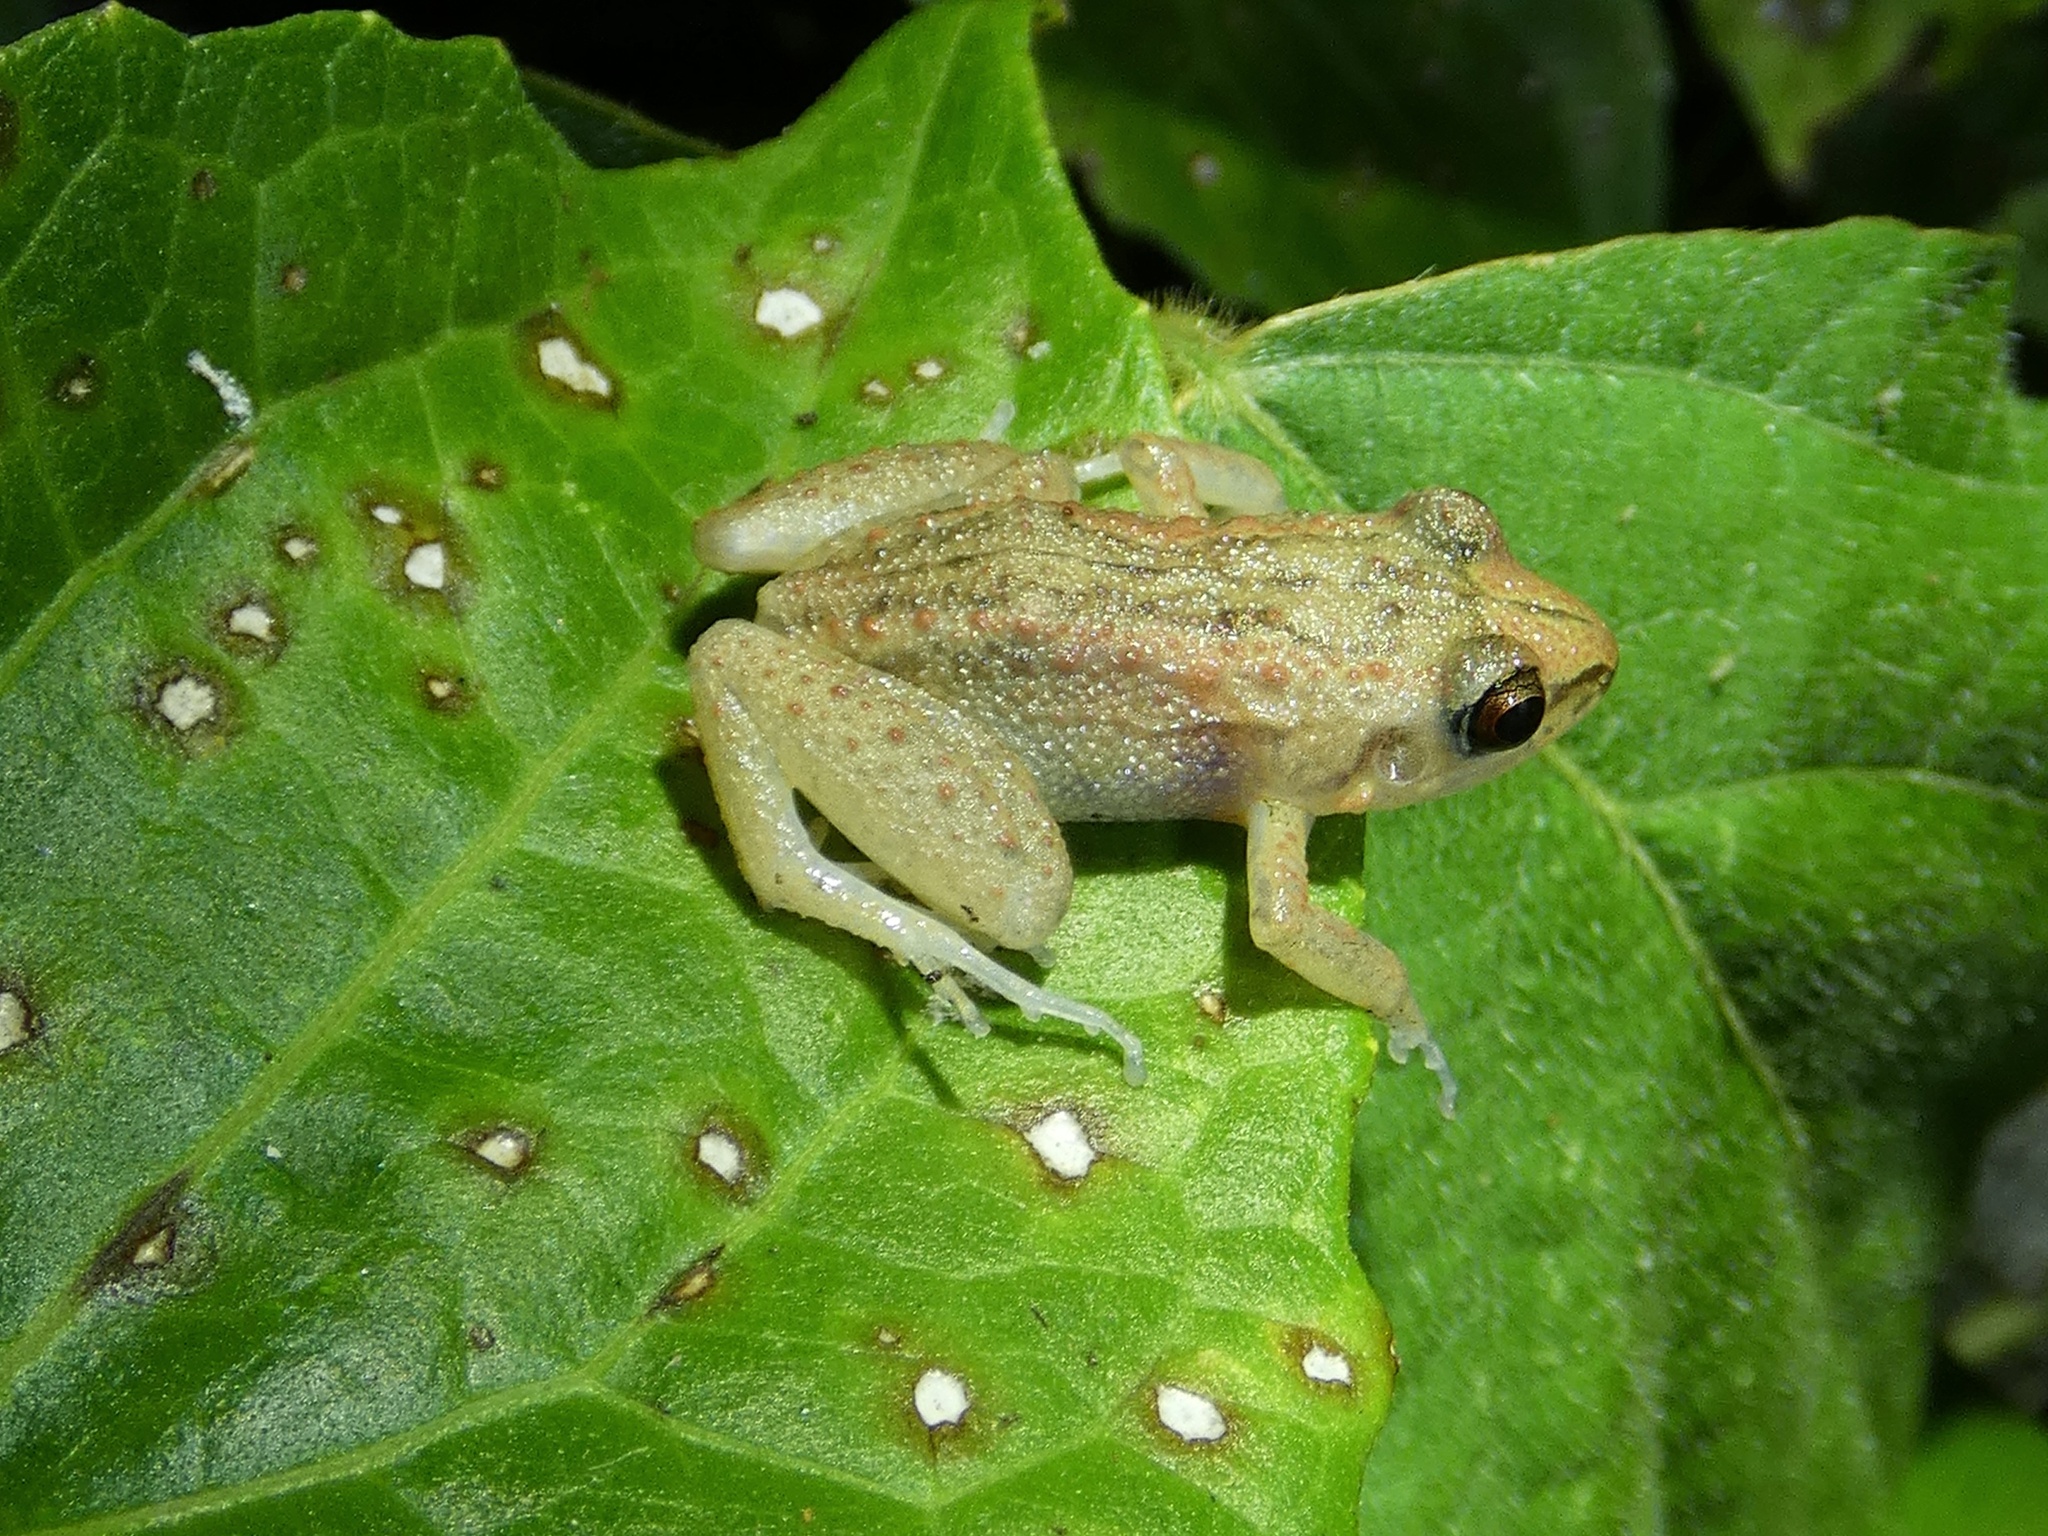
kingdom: Animalia
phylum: Chordata
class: Amphibia
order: Anura
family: Eleutherodactylidae
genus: Eleutherodactylus
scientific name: Eleutherodactylus planirostris
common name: Greenhouse frog
